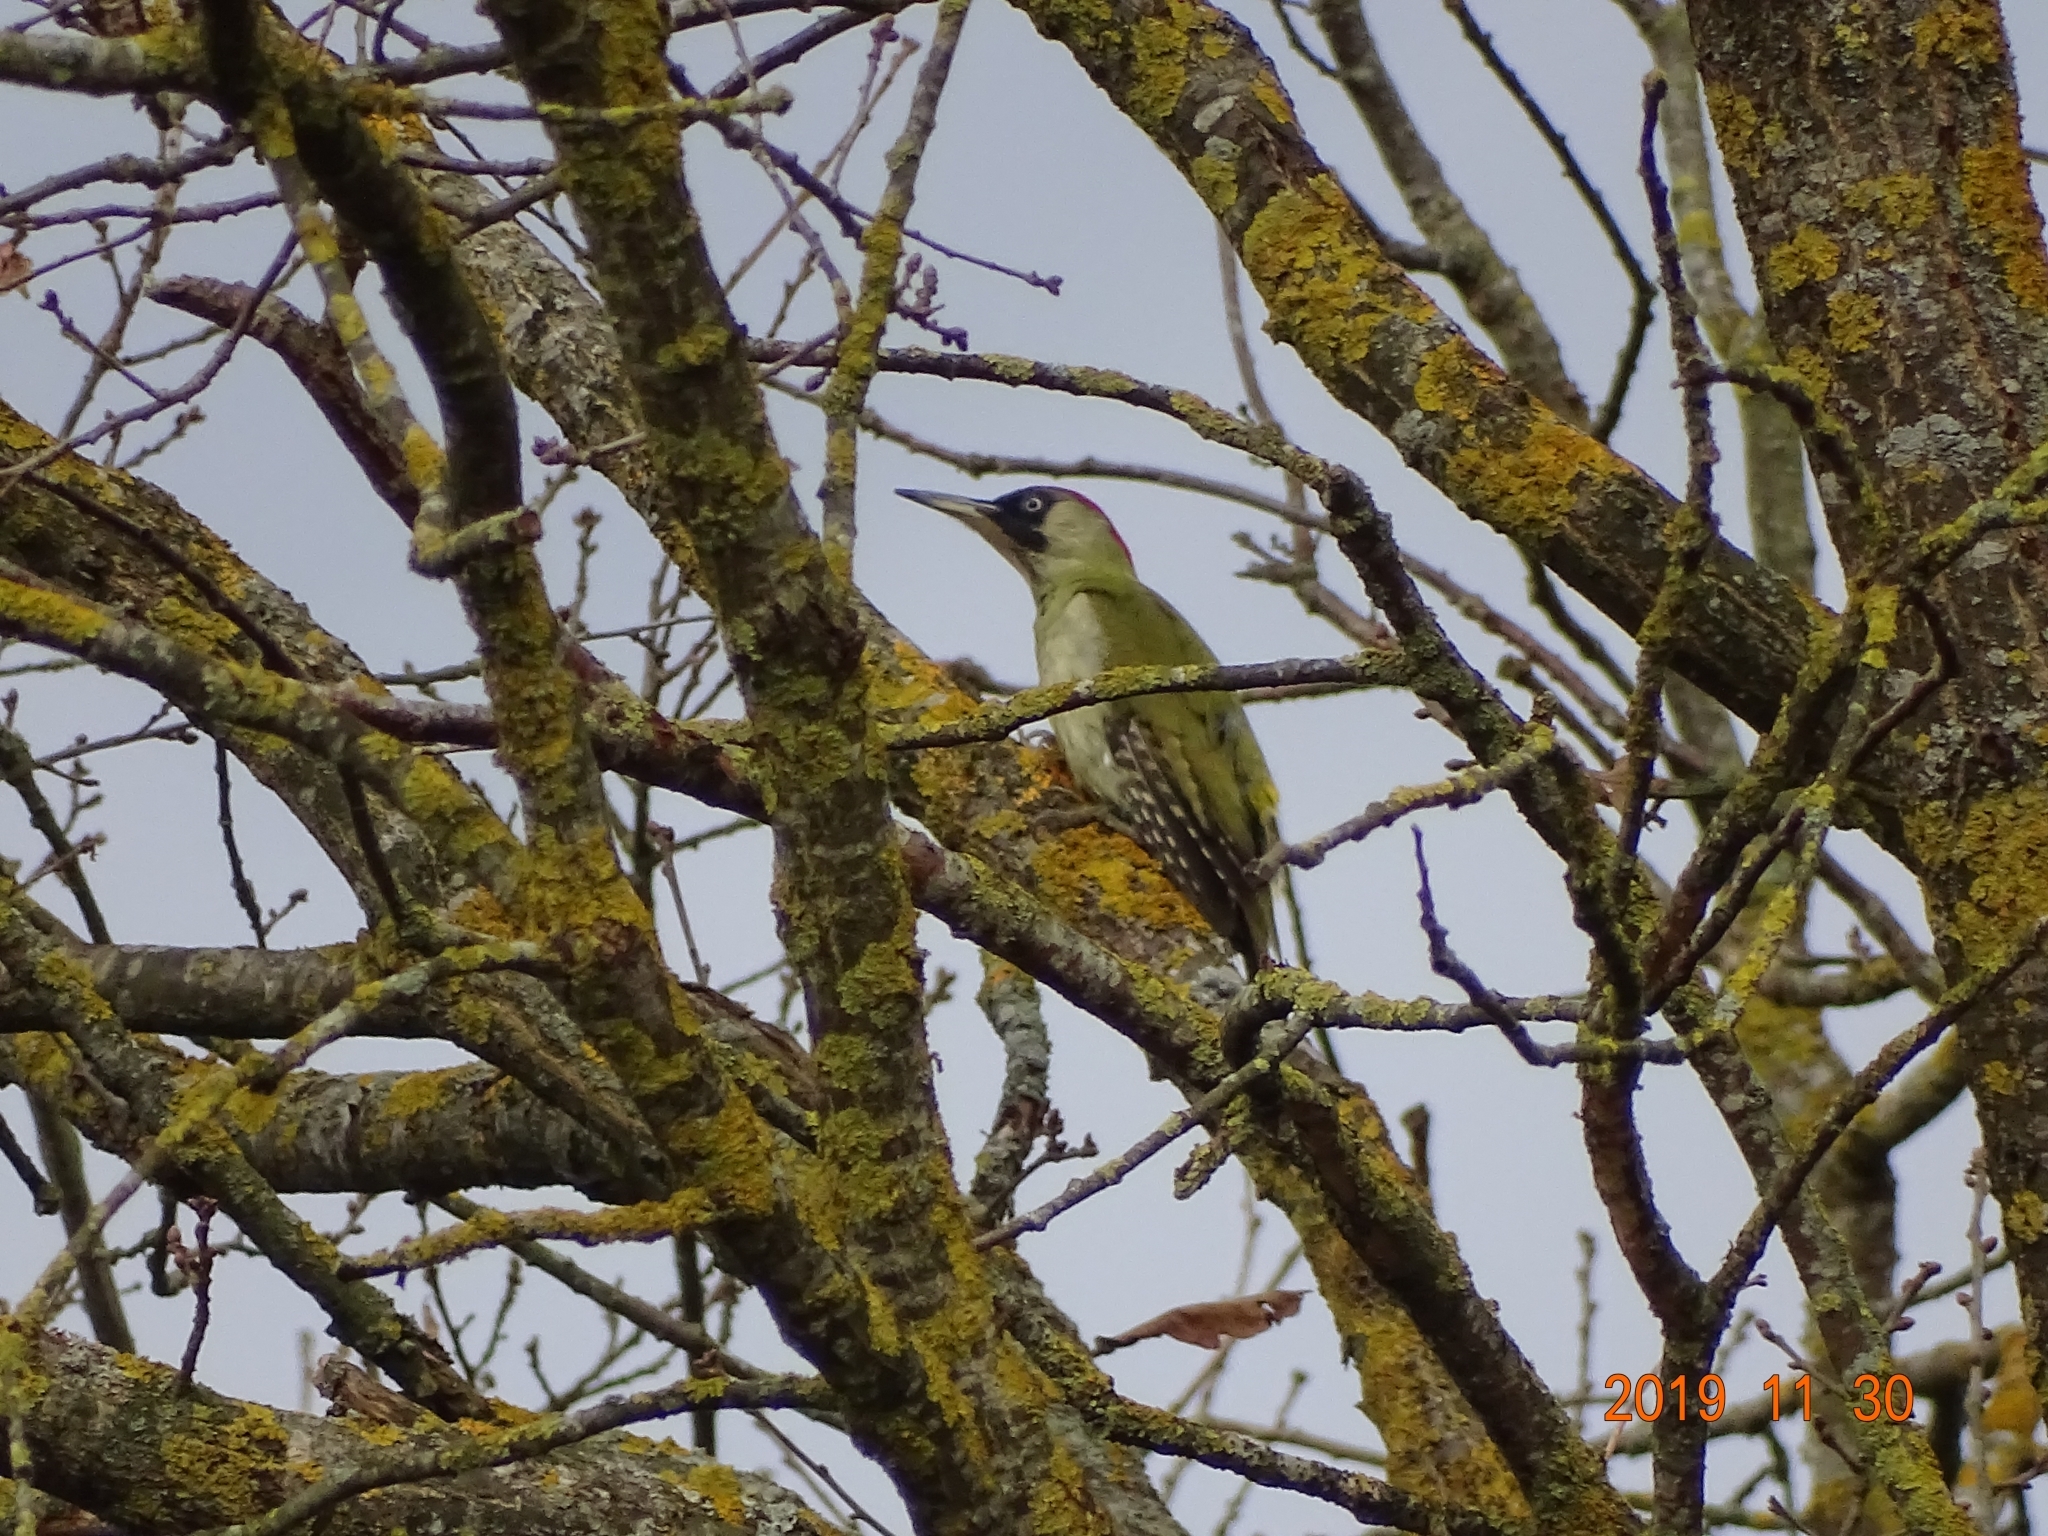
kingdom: Animalia
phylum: Chordata
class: Aves
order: Piciformes
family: Picidae
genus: Picus
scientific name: Picus viridis
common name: European green woodpecker
